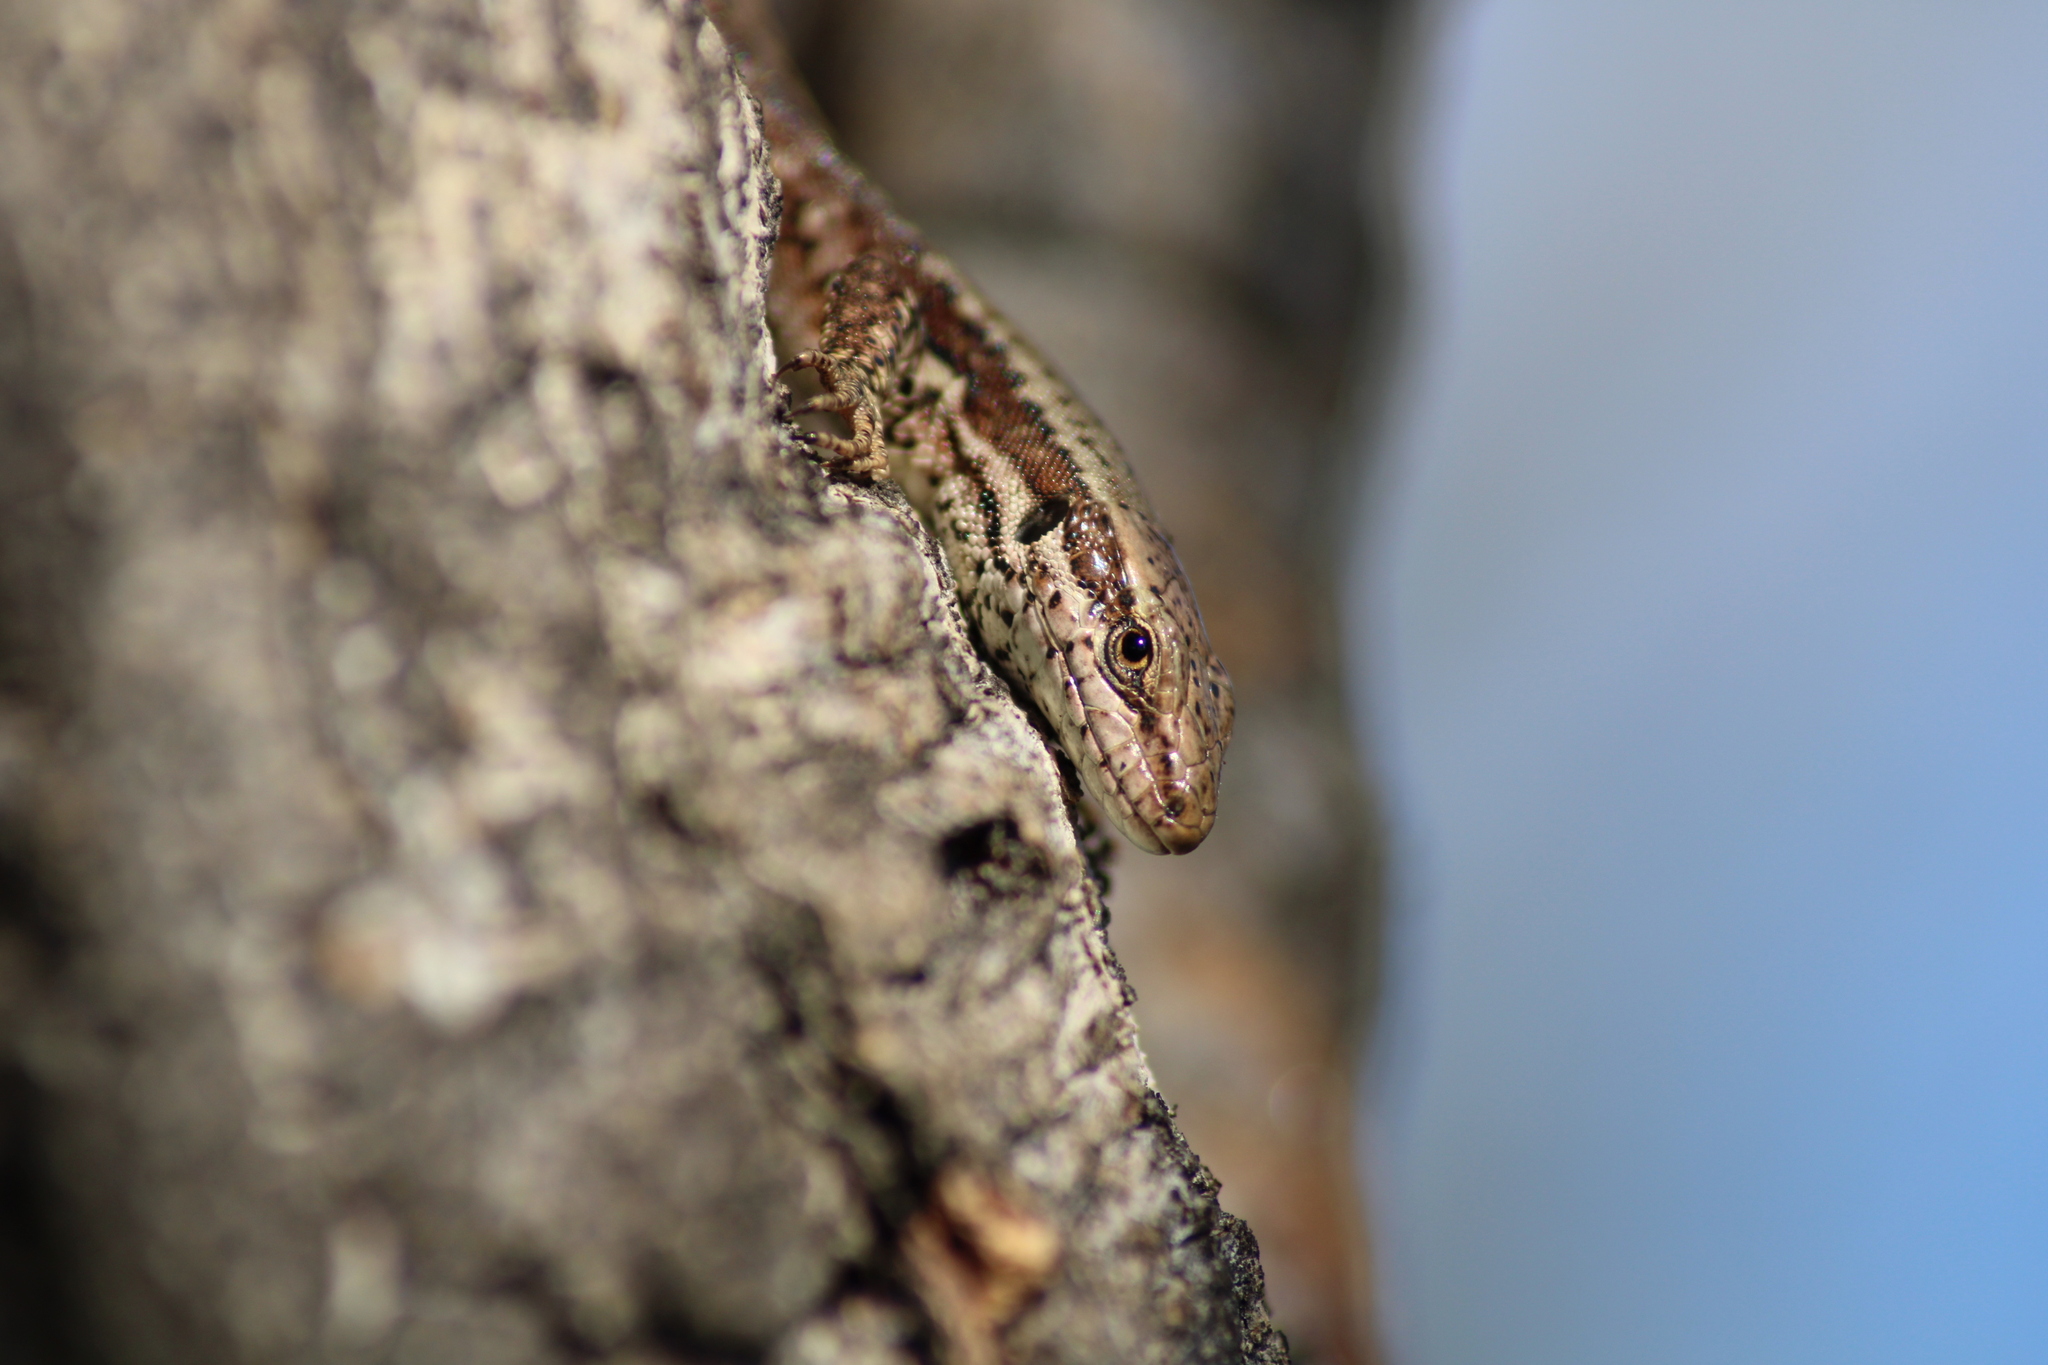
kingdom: Animalia
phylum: Chordata
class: Squamata
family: Lacertidae
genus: Podarcis
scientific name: Podarcis muralis
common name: Common wall lizard
